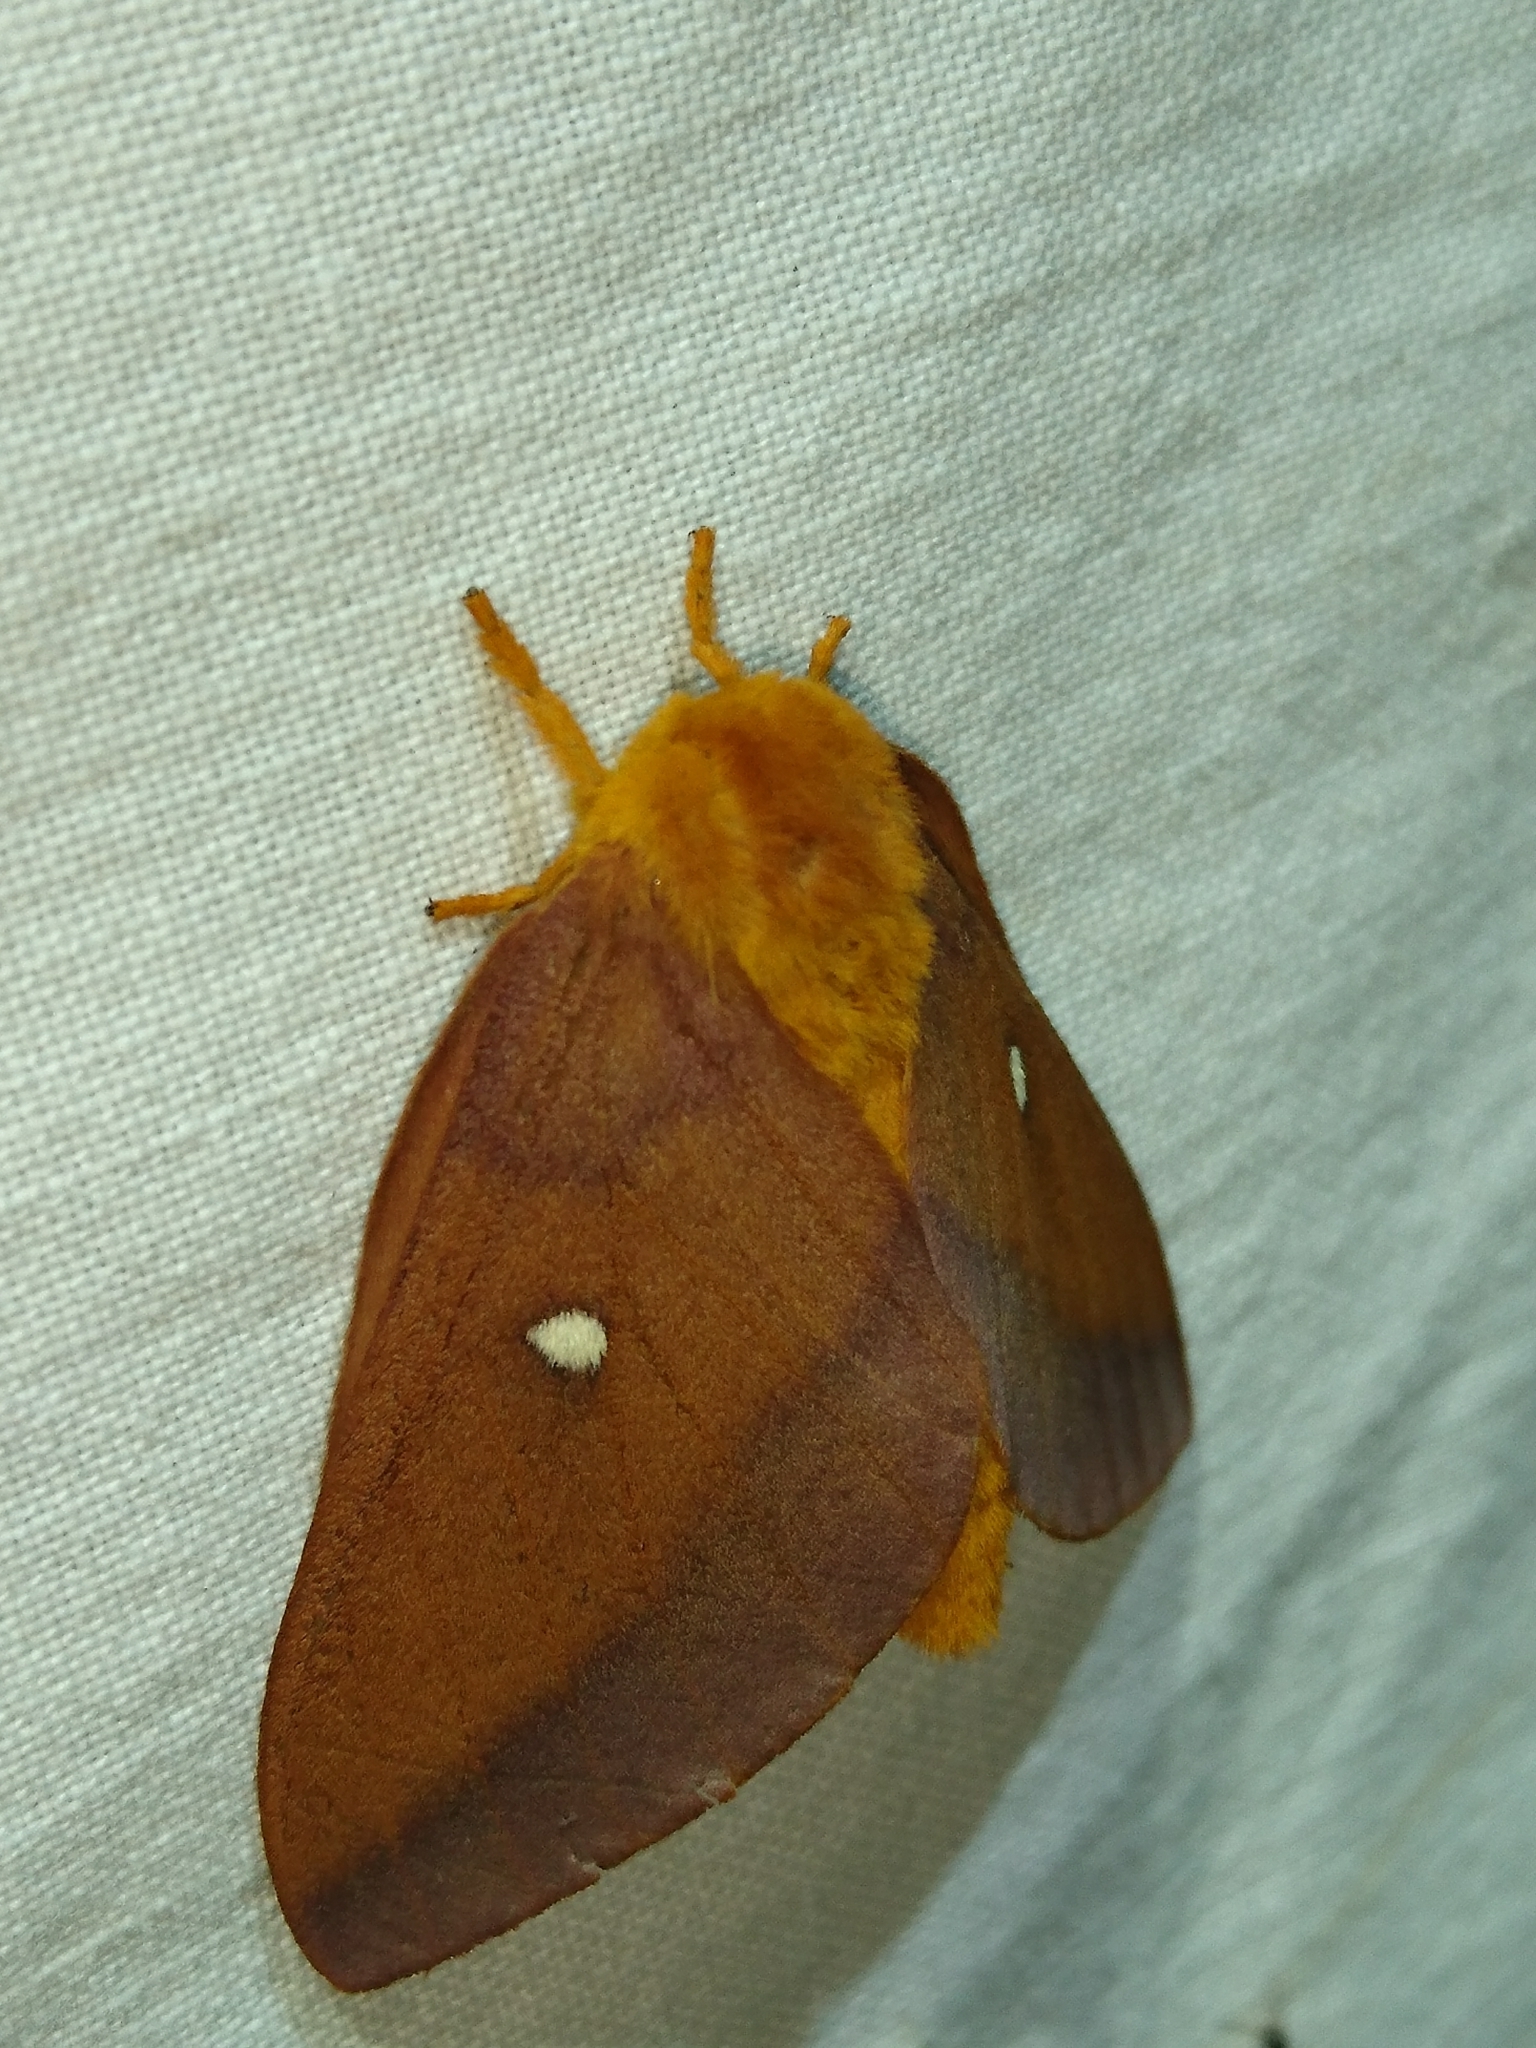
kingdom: Animalia
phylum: Arthropoda
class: Insecta
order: Lepidoptera
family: Saturniidae
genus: Anisota
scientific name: Anisota virginiensis
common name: Pink striped oakworm moth
